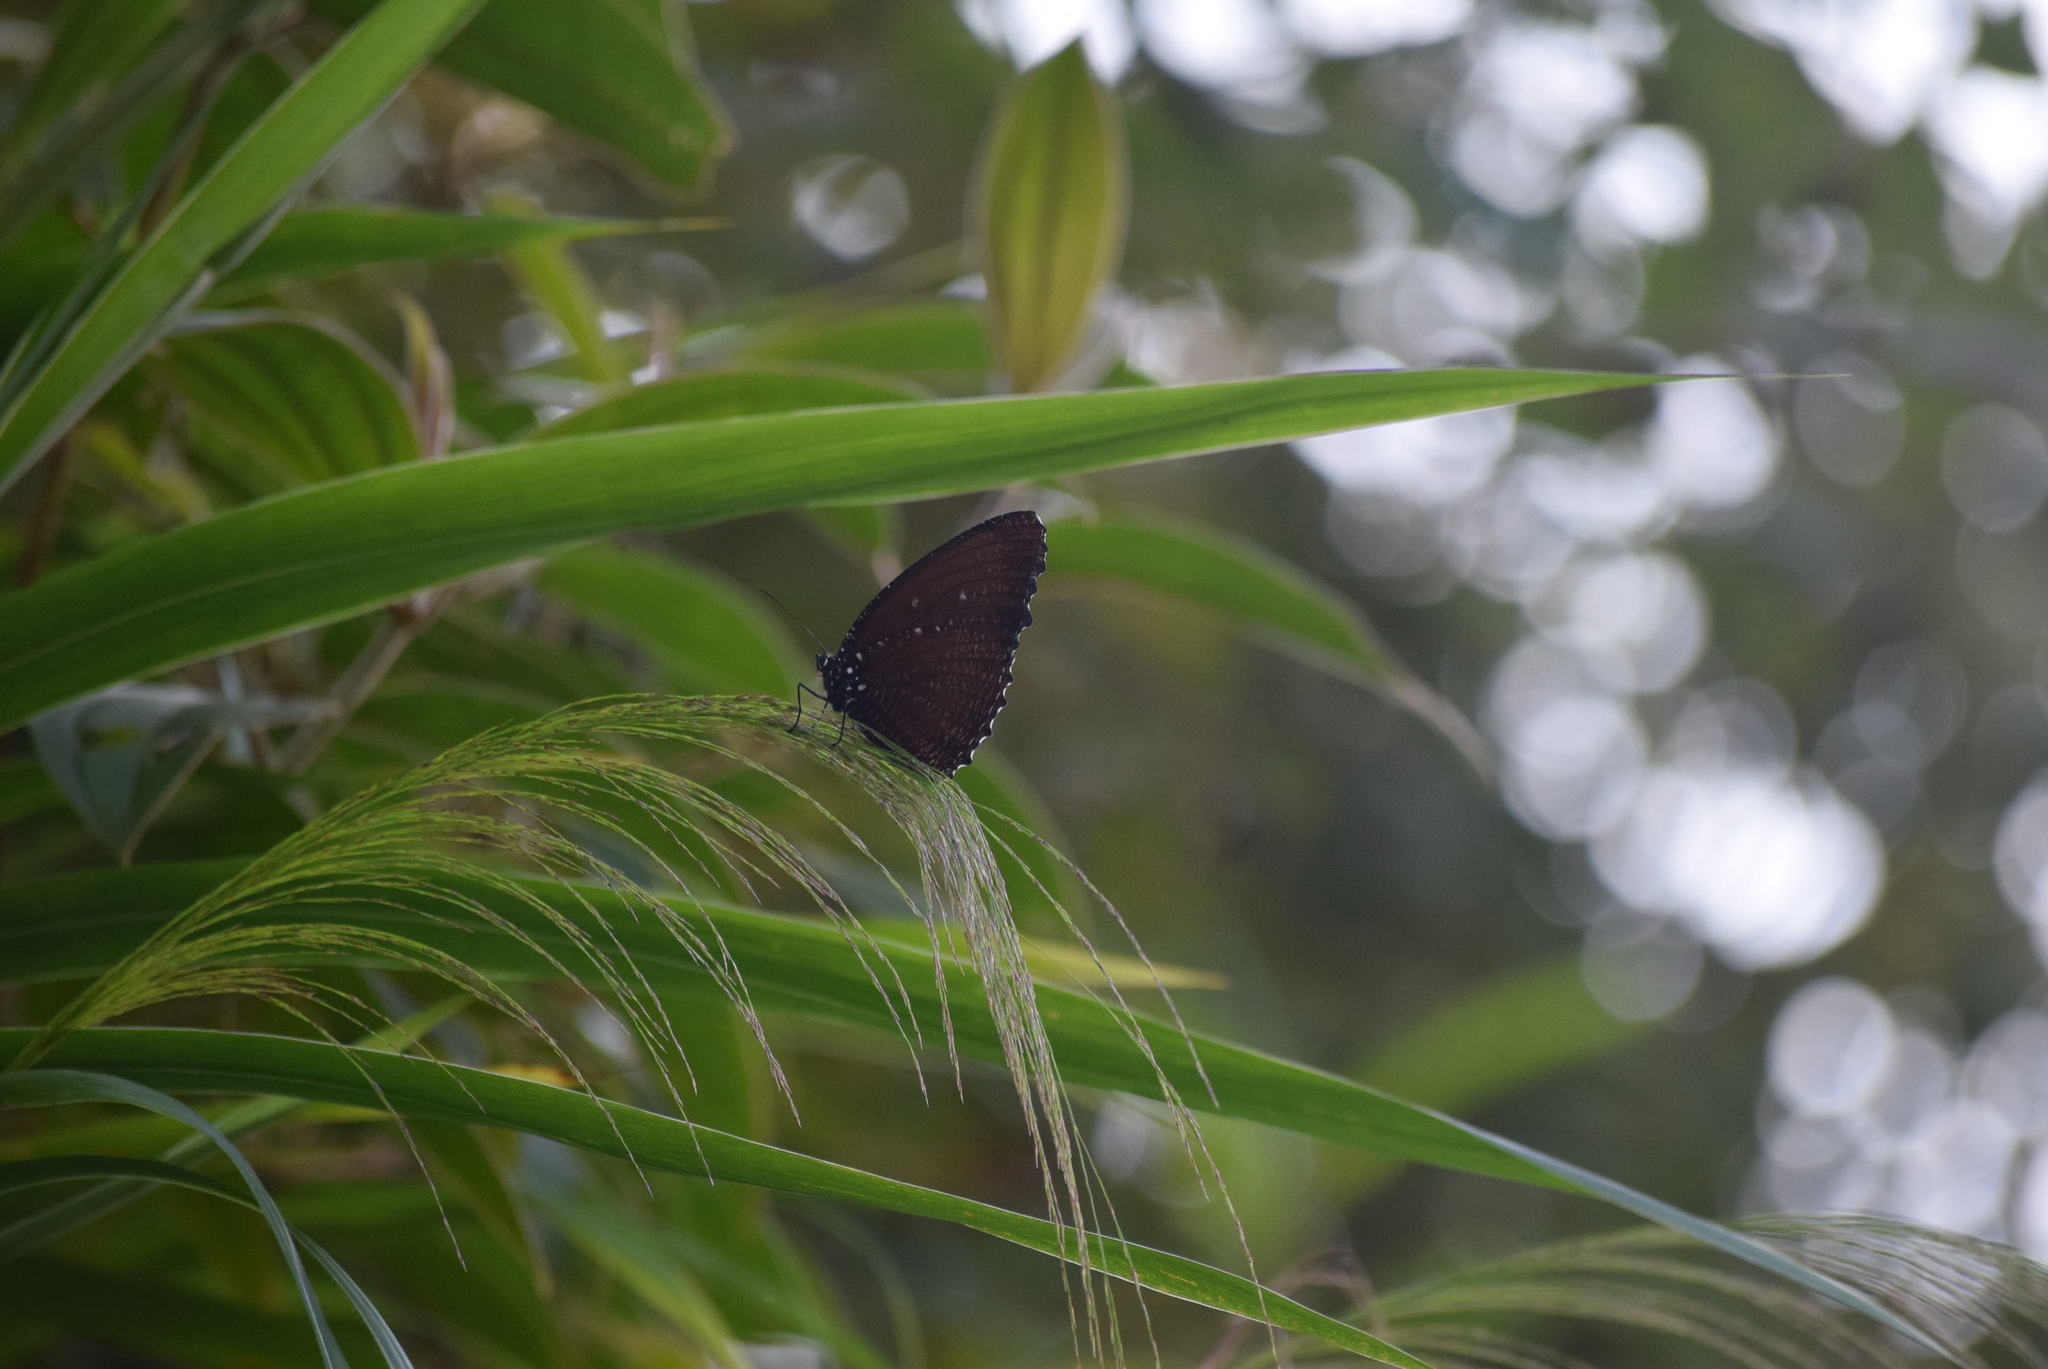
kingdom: Animalia
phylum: Arthropoda
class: Insecta
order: Lepidoptera
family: Nymphalidae
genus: Elymnias
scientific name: Elymnias hypermnestra
